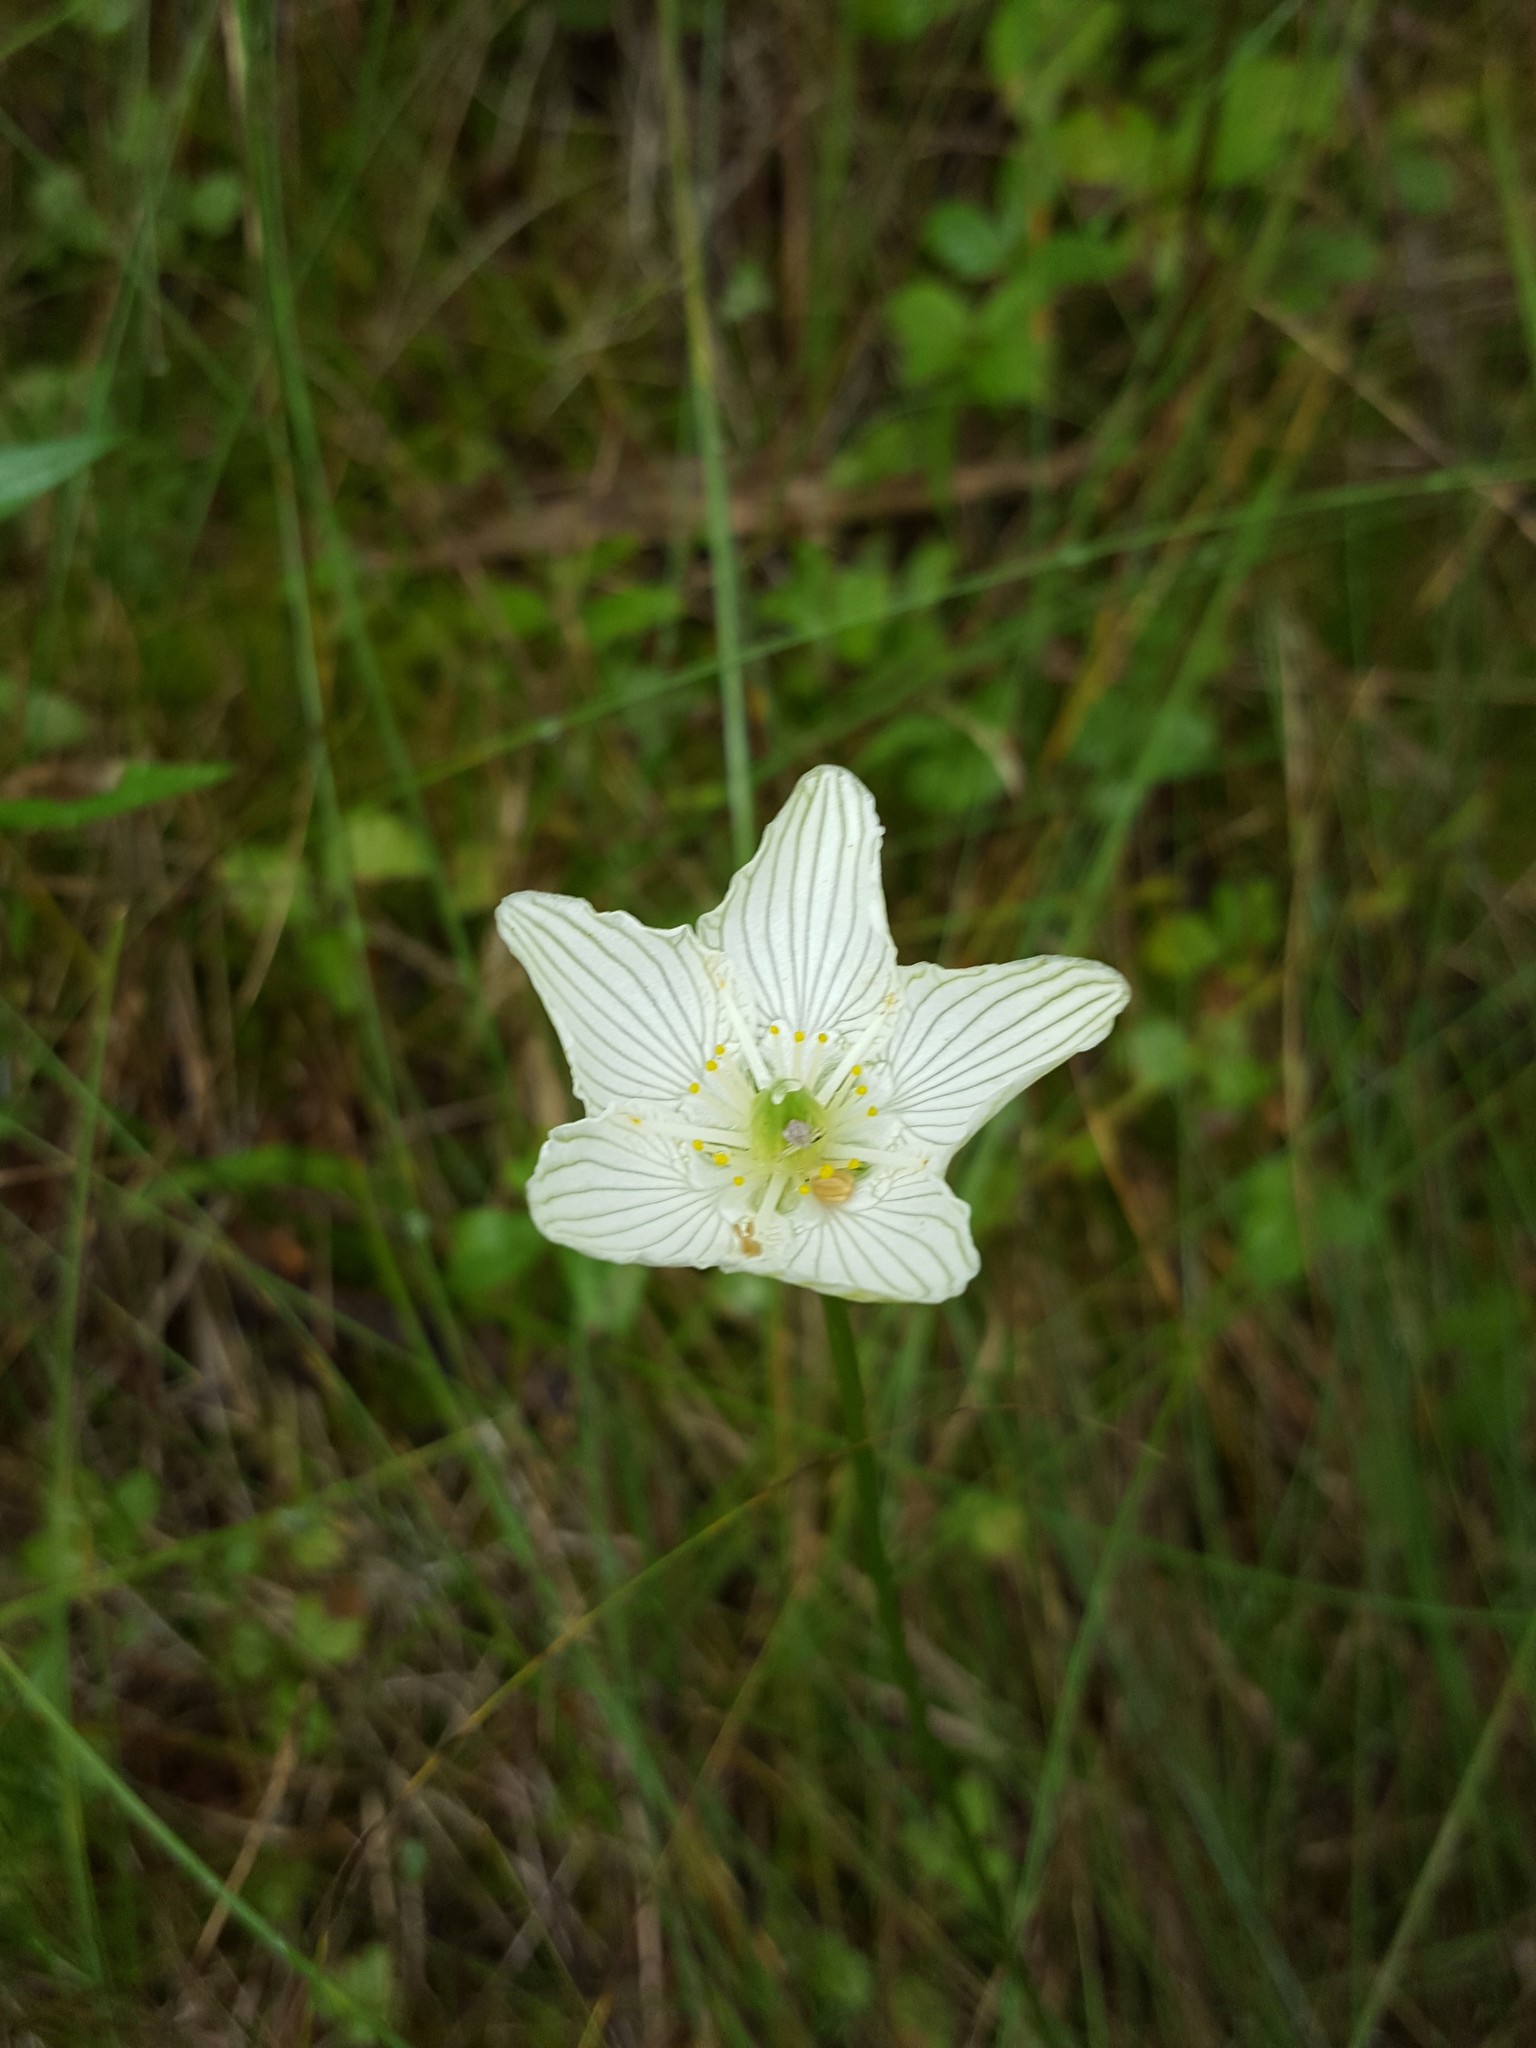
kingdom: Plantae
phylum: Tracheophyta
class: Magnoliopsida
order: Celastrales
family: Parnassiaceae
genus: Parnassia
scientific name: Parnassia glauca
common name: American grass-of-parnassus
